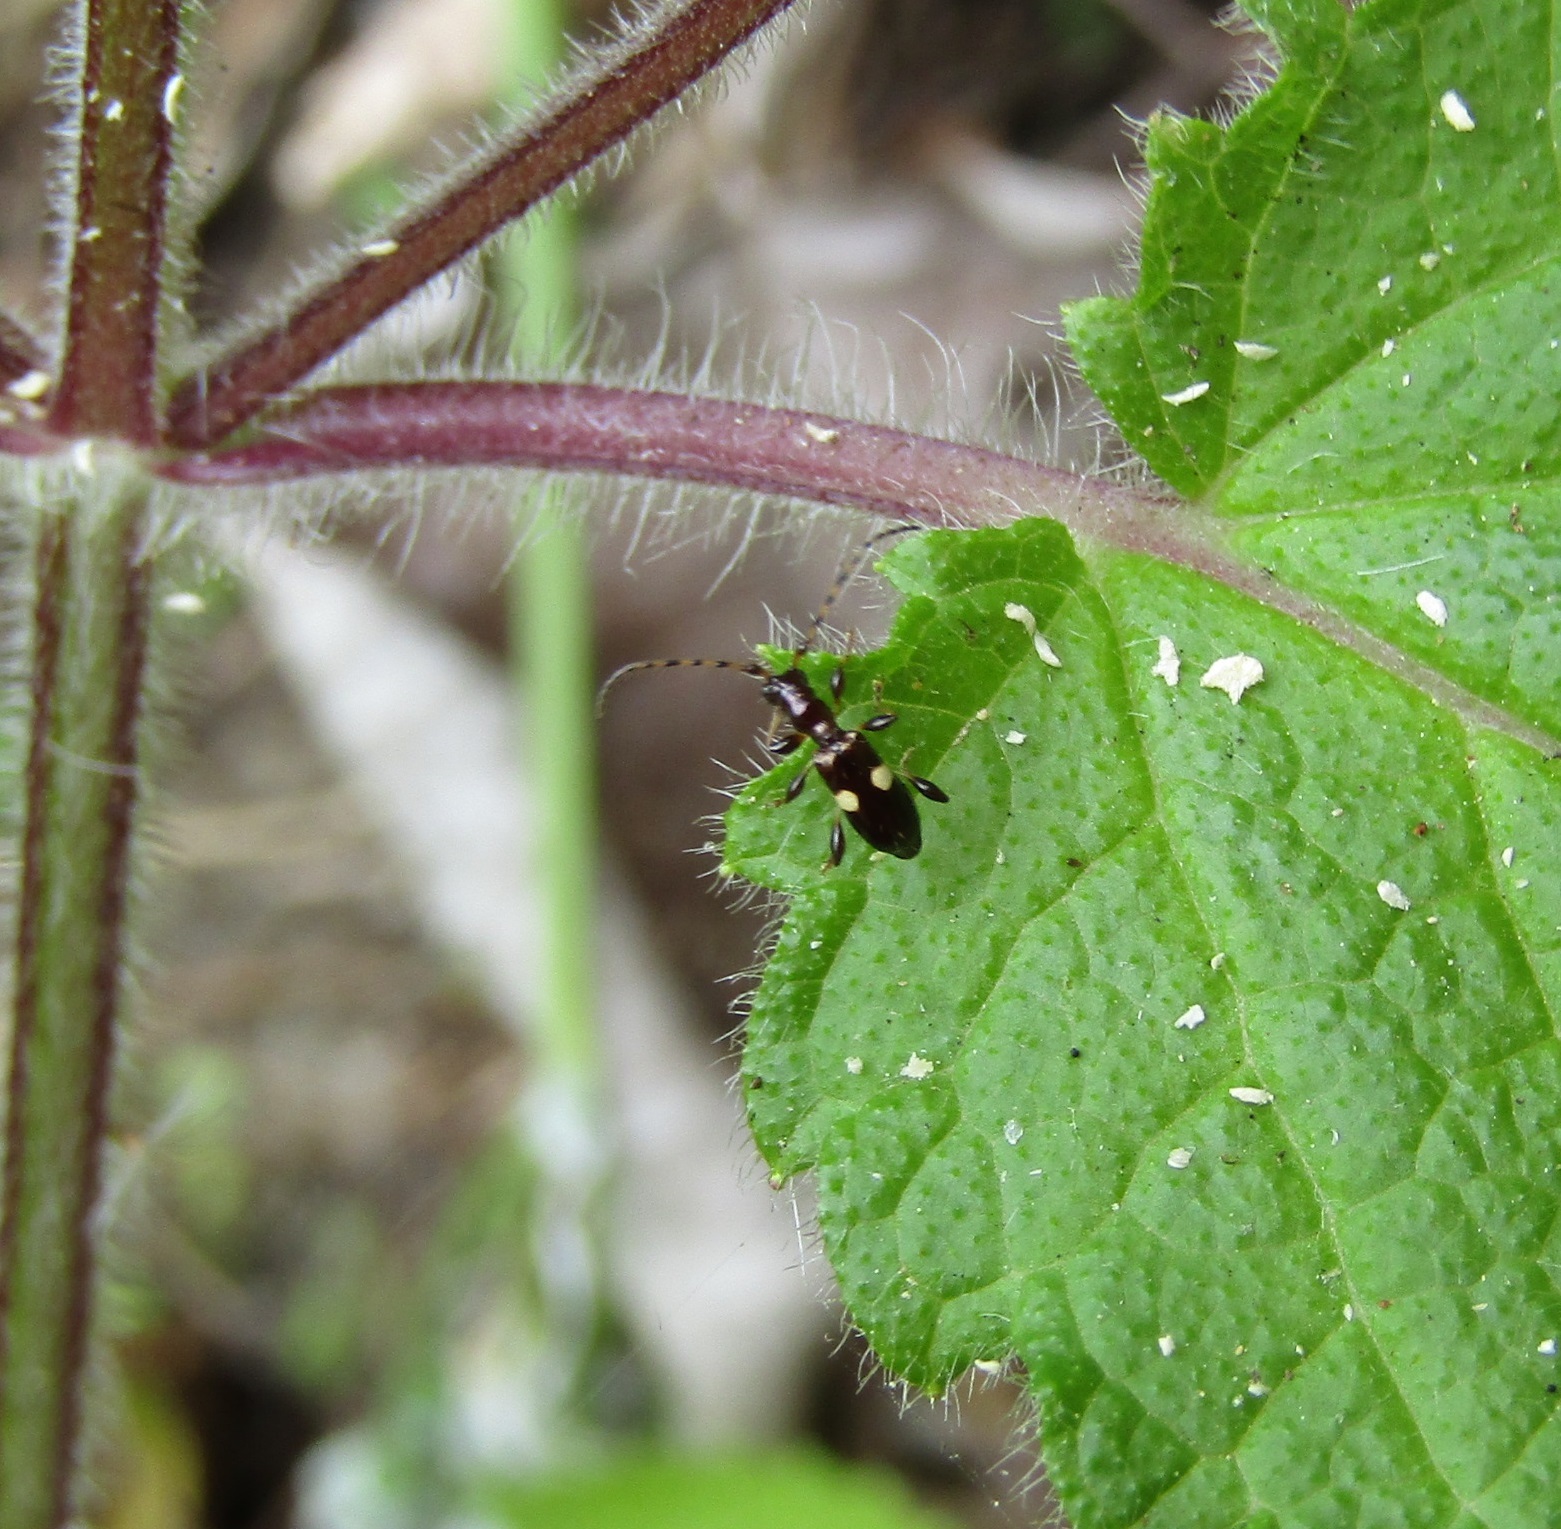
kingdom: Animalia
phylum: Arthropoda
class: Insecta
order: Coleoptera
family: Cerambycidae
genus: Zorion
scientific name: Zorion guttigerum
